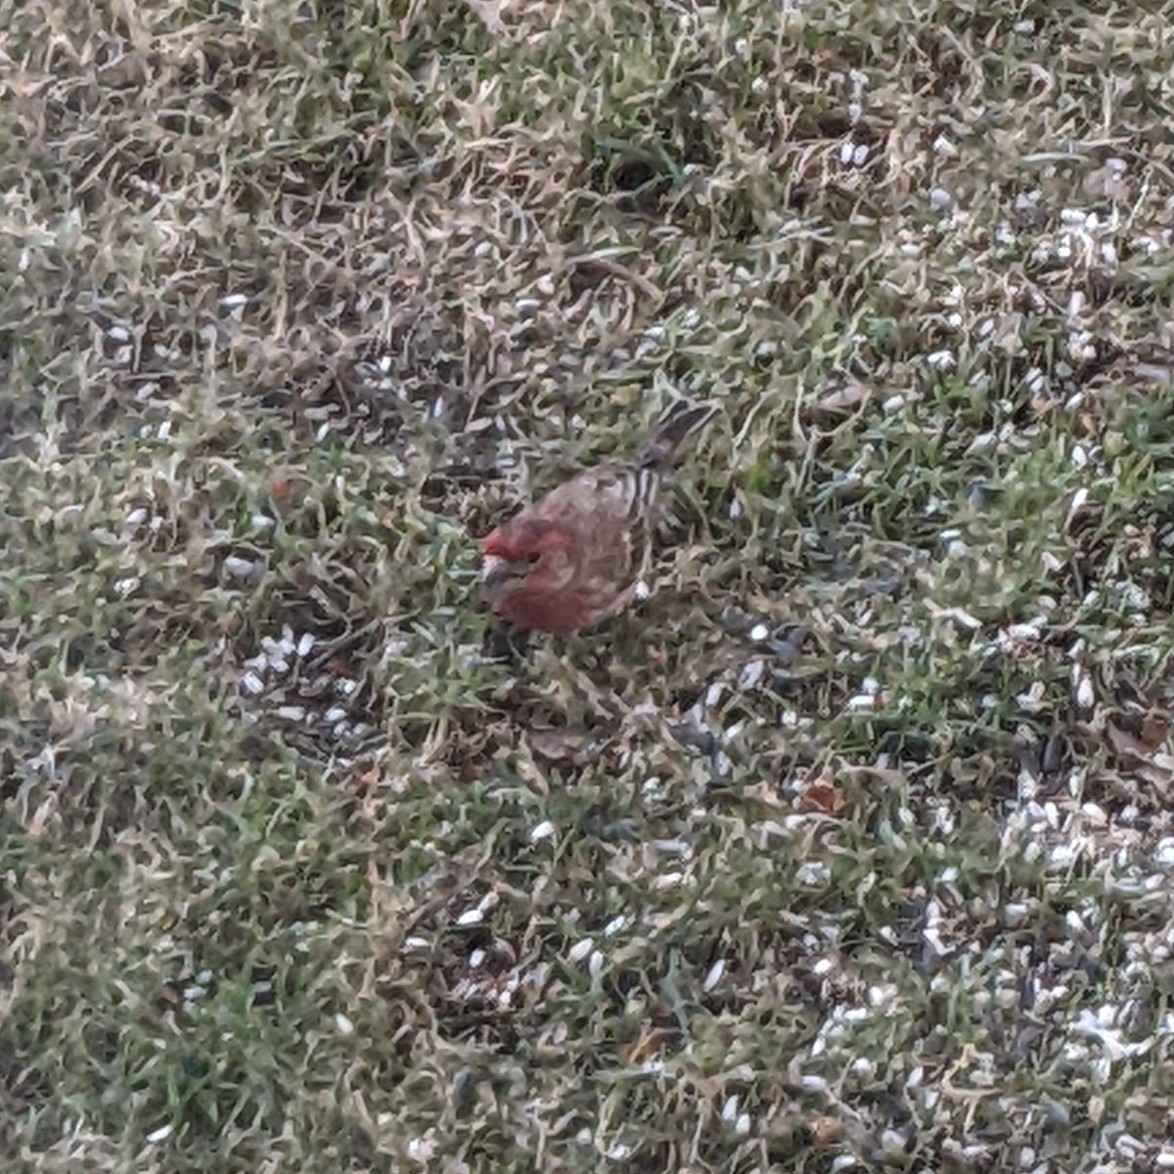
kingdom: Animalia
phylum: Chordata
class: Aves
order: Passeriformes
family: Fringillidae
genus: Haemorhous
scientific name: Haemorhous mexicanus
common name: House finch
